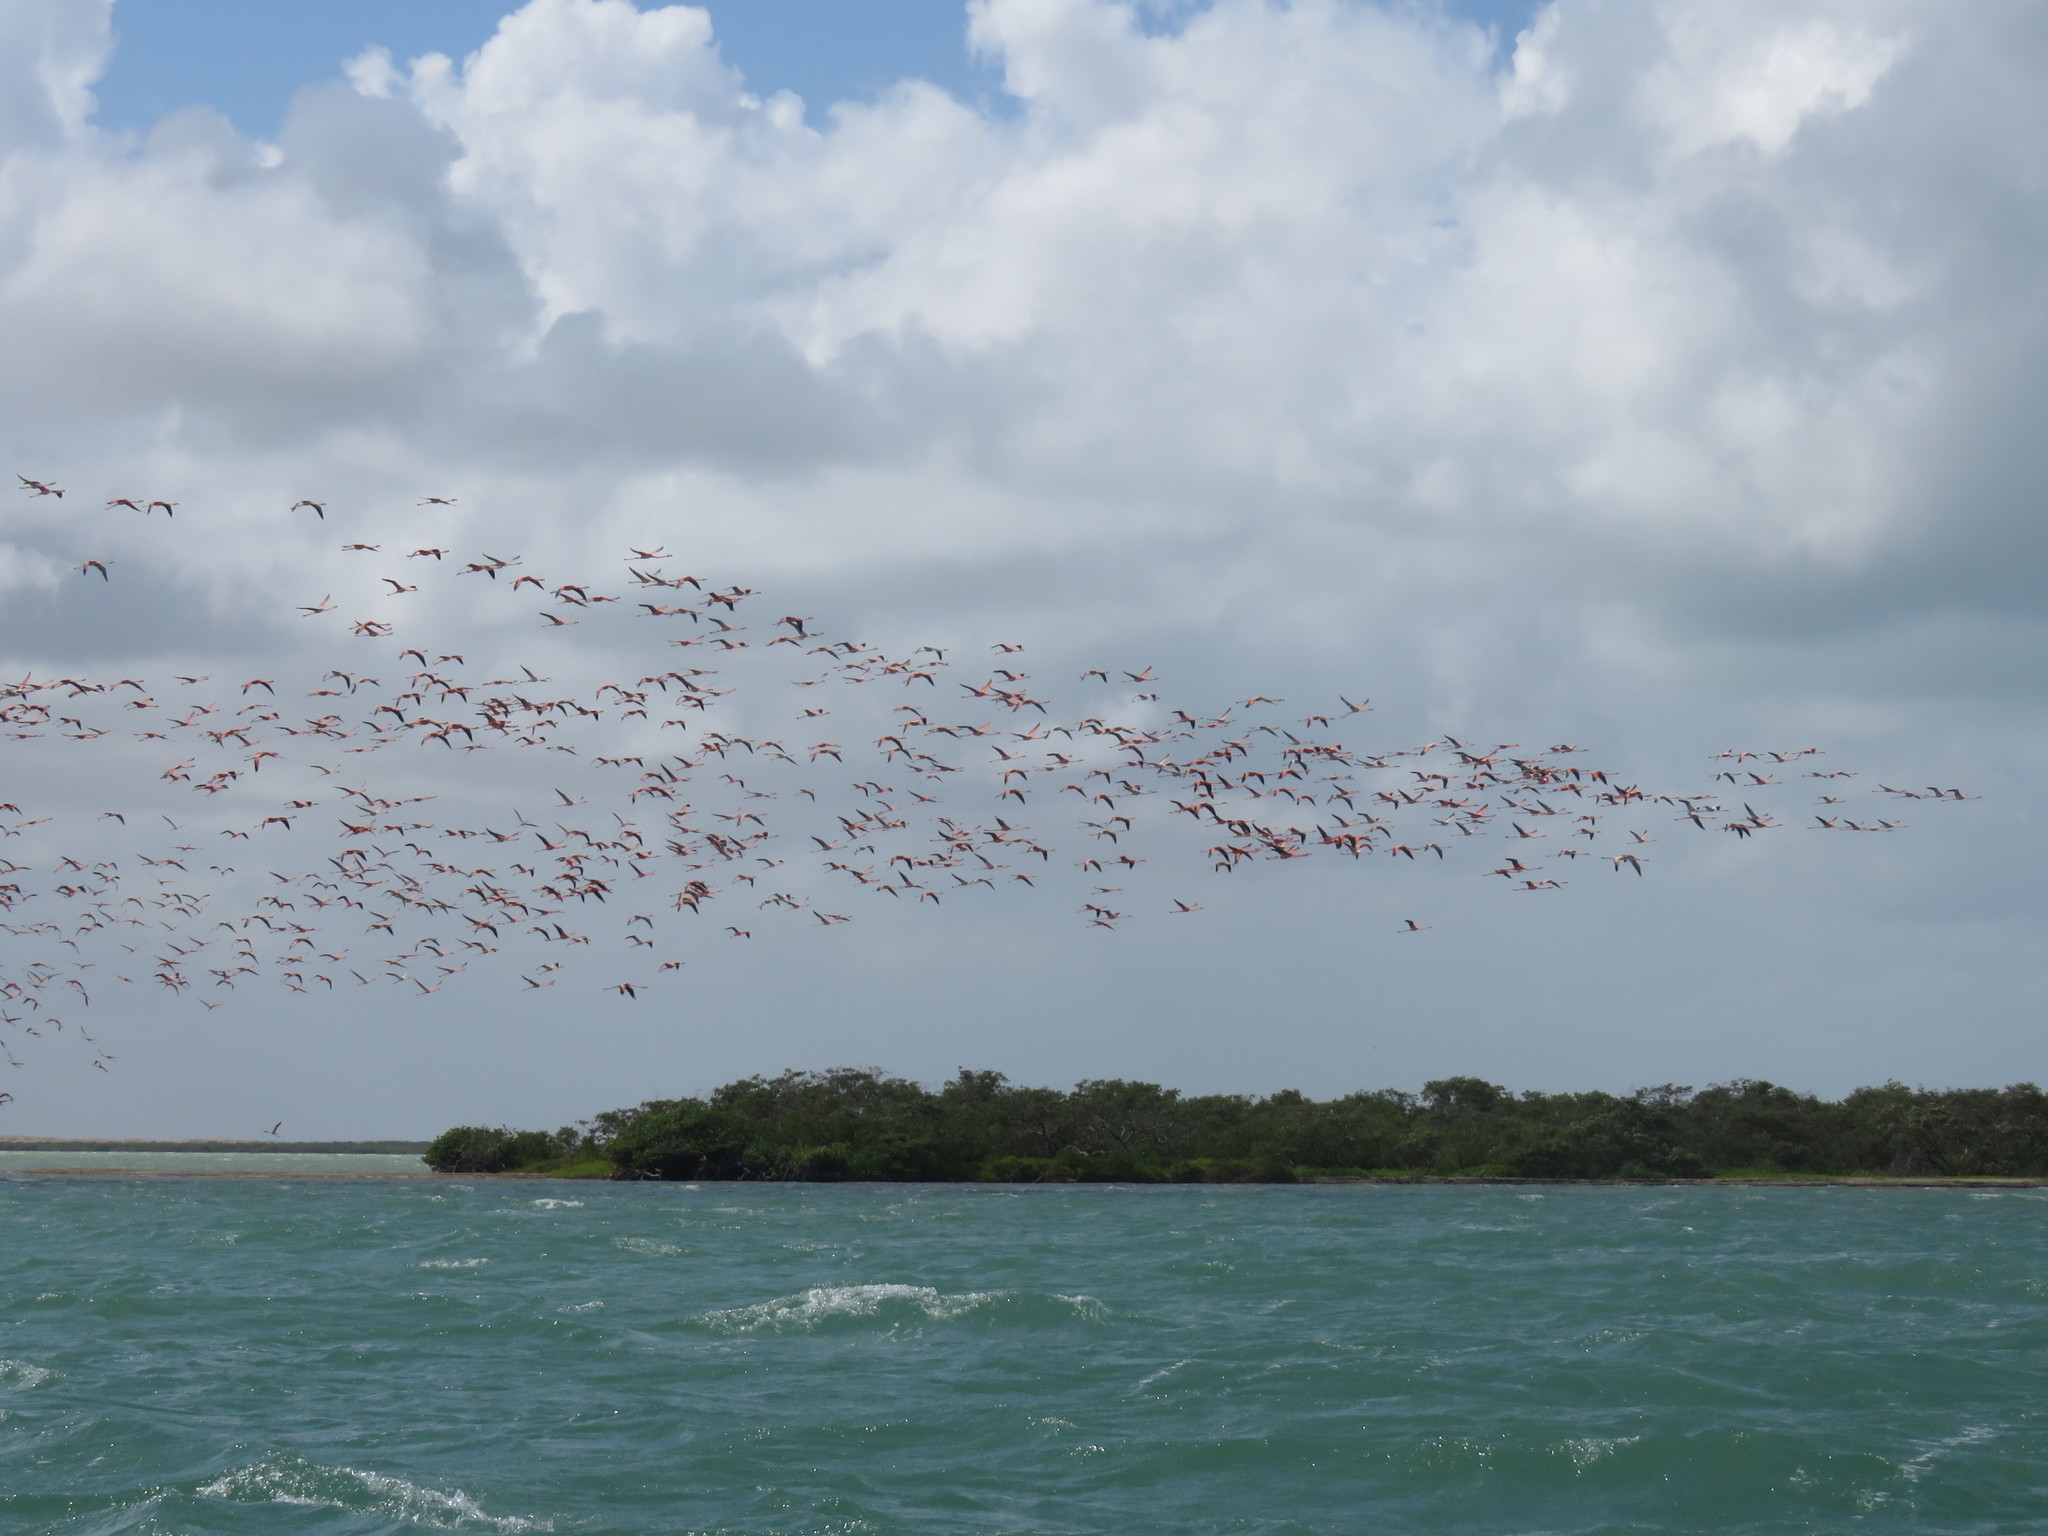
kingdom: Animalia
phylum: Chordata
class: Aves
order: Phoenicopteriformes
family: Phoenicopteridae
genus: Phoenicopterus
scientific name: Phoenicopterus ruber
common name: American flamingo
